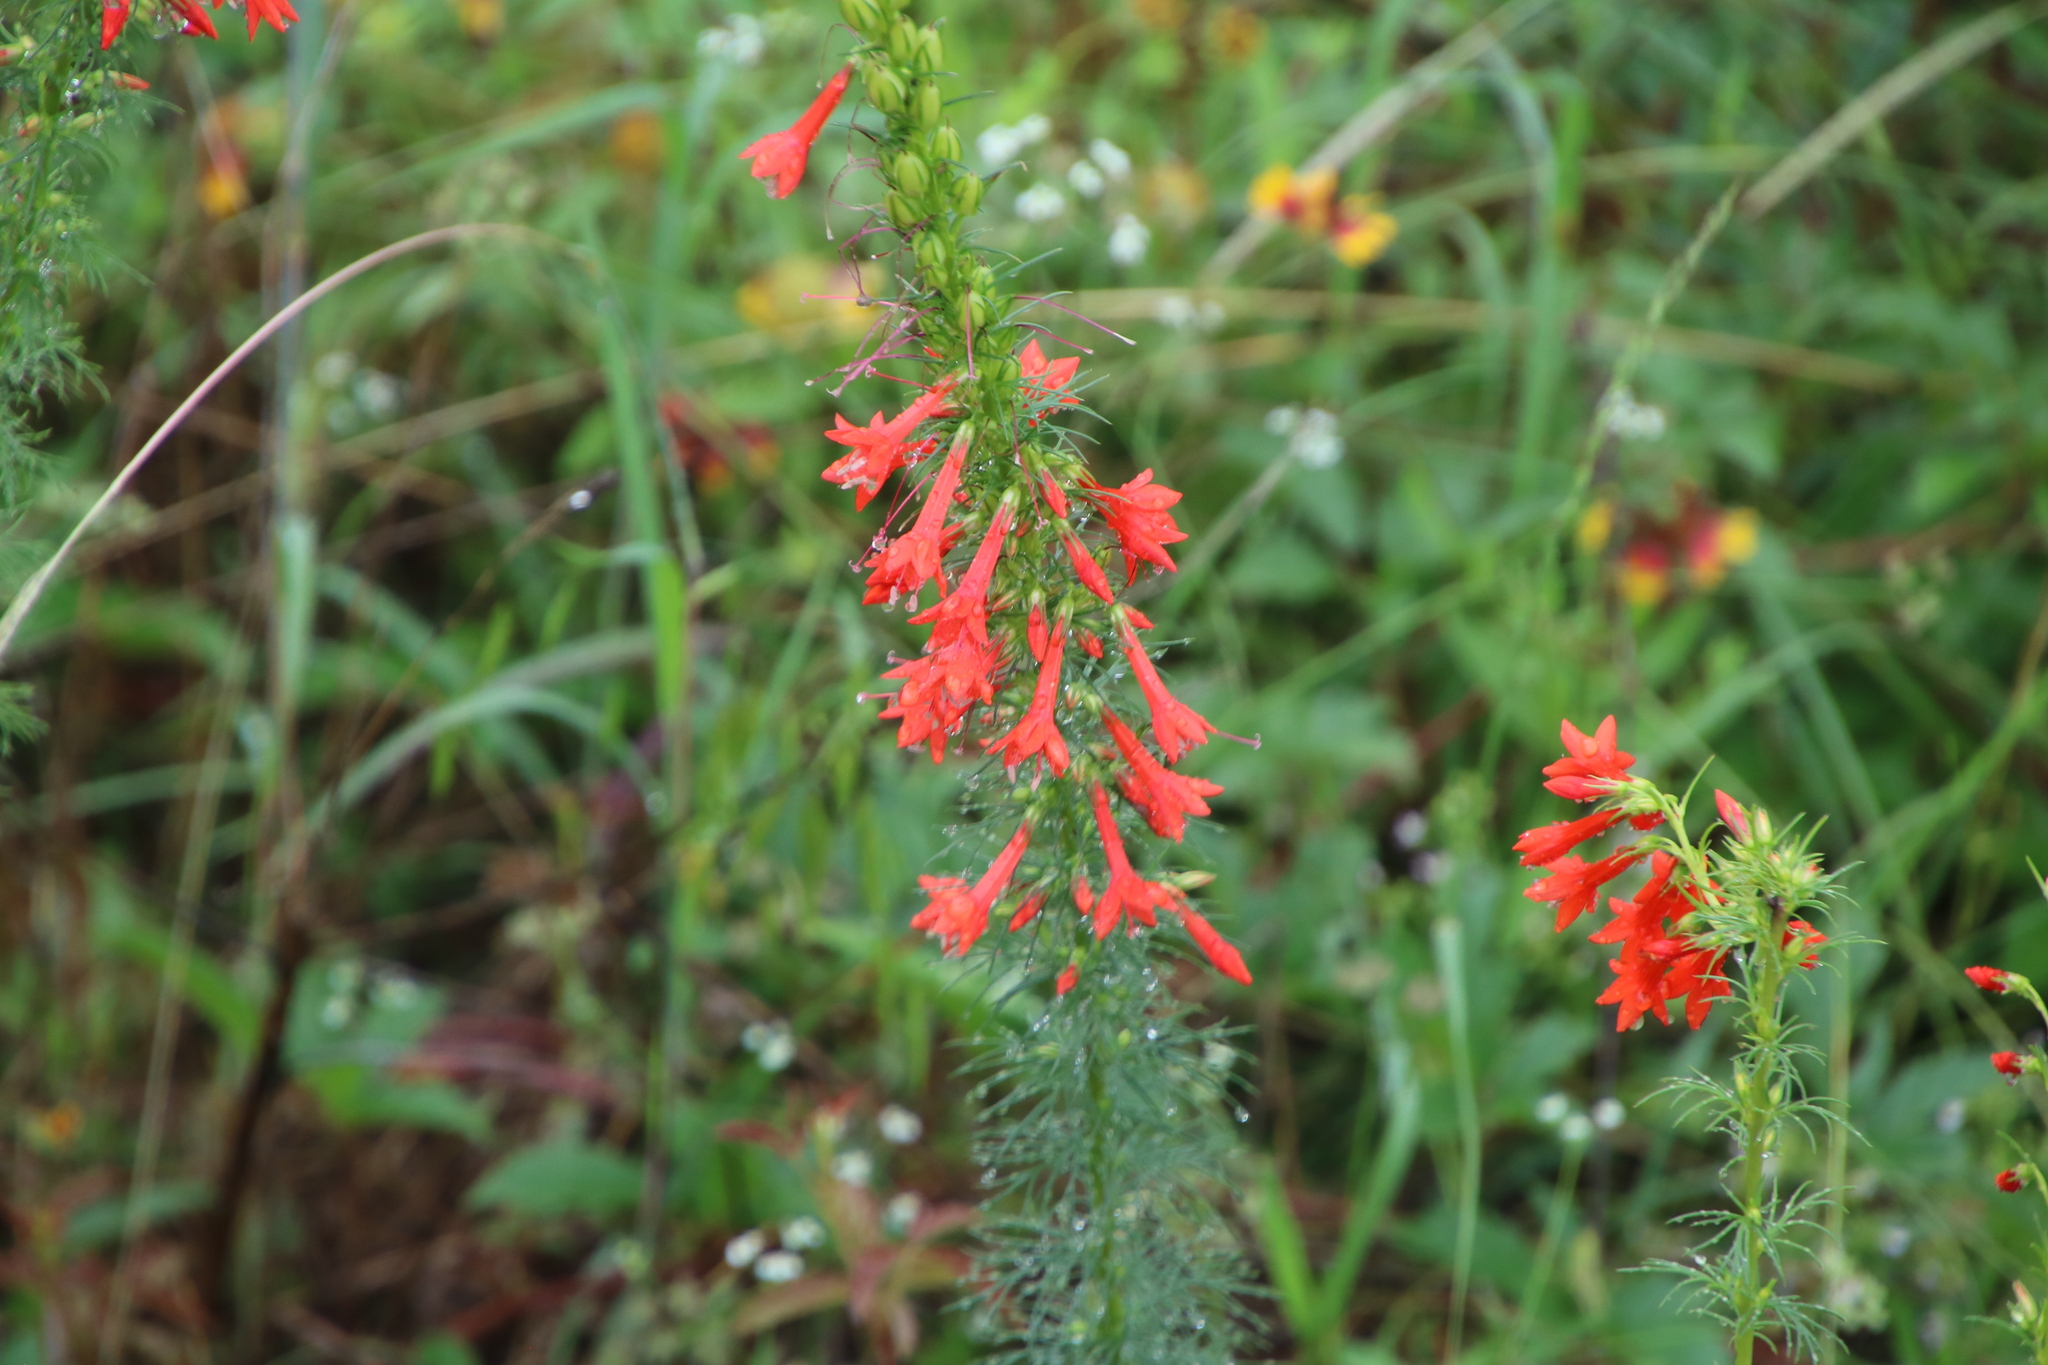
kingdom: Plantae
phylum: Tracheophyta
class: Magnoliopsida
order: Ericales
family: Polemoniaceae
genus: Ipomopsis
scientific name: Ipomopsis rubra
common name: Skyrocket
